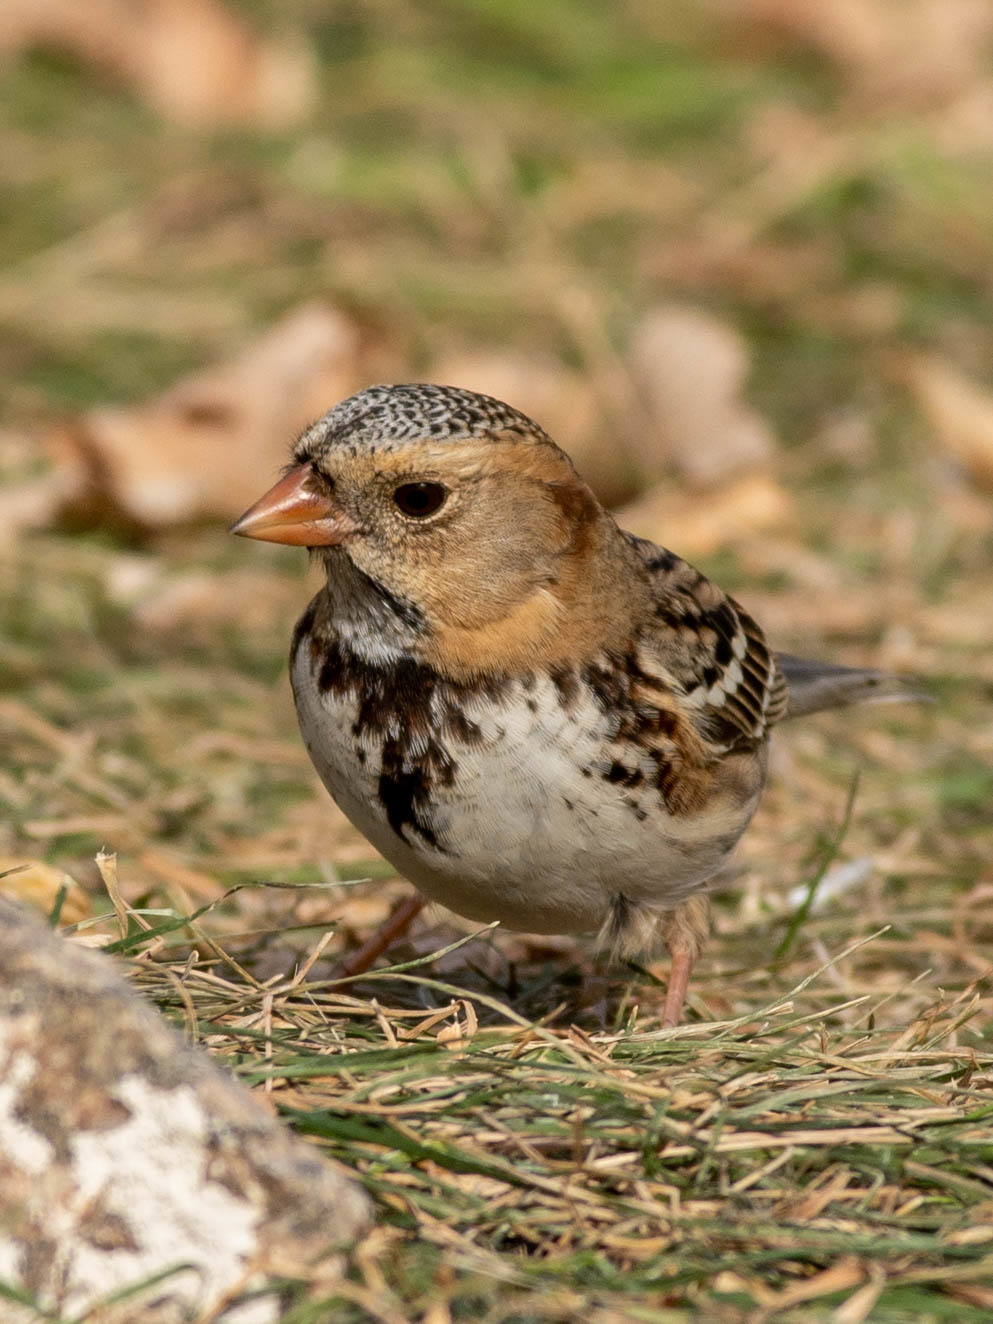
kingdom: Animalia
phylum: Chordata
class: Aves
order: Passeriformes
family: Passerellidae
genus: Zonotrichia
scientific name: Zonotrichia querula
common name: Harris's sparrow
